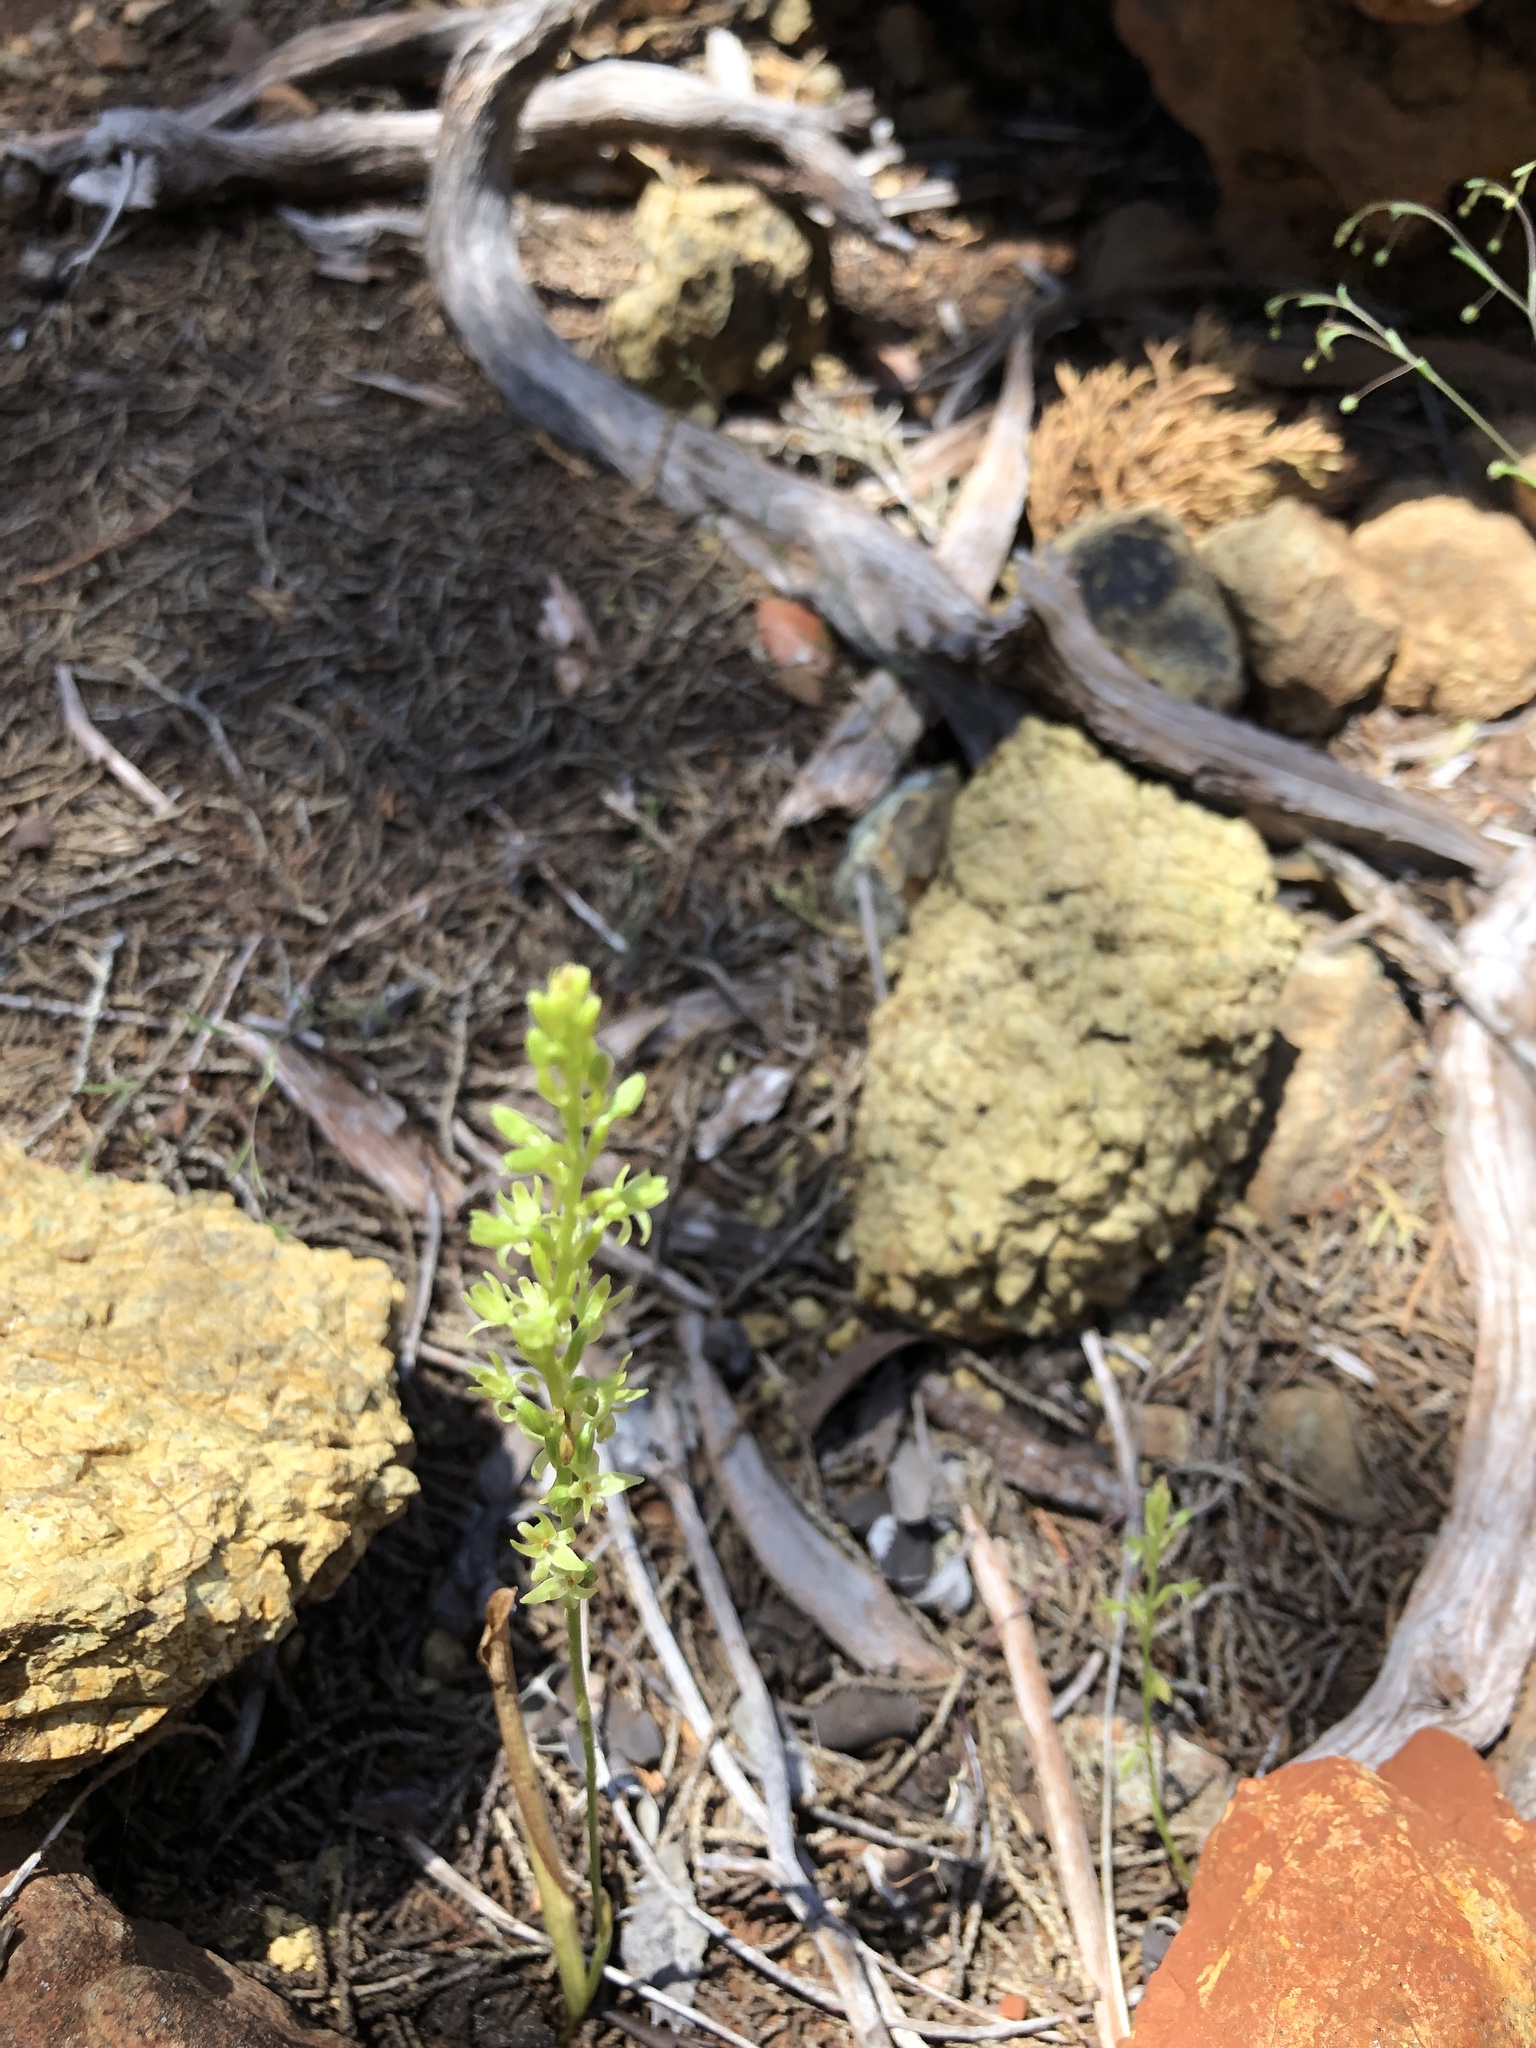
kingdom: Plantae
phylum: Tracheophyta
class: Liliopsida
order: Asparagales
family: Orchidaceae
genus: Platanthera
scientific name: Platanthera leptopetala
